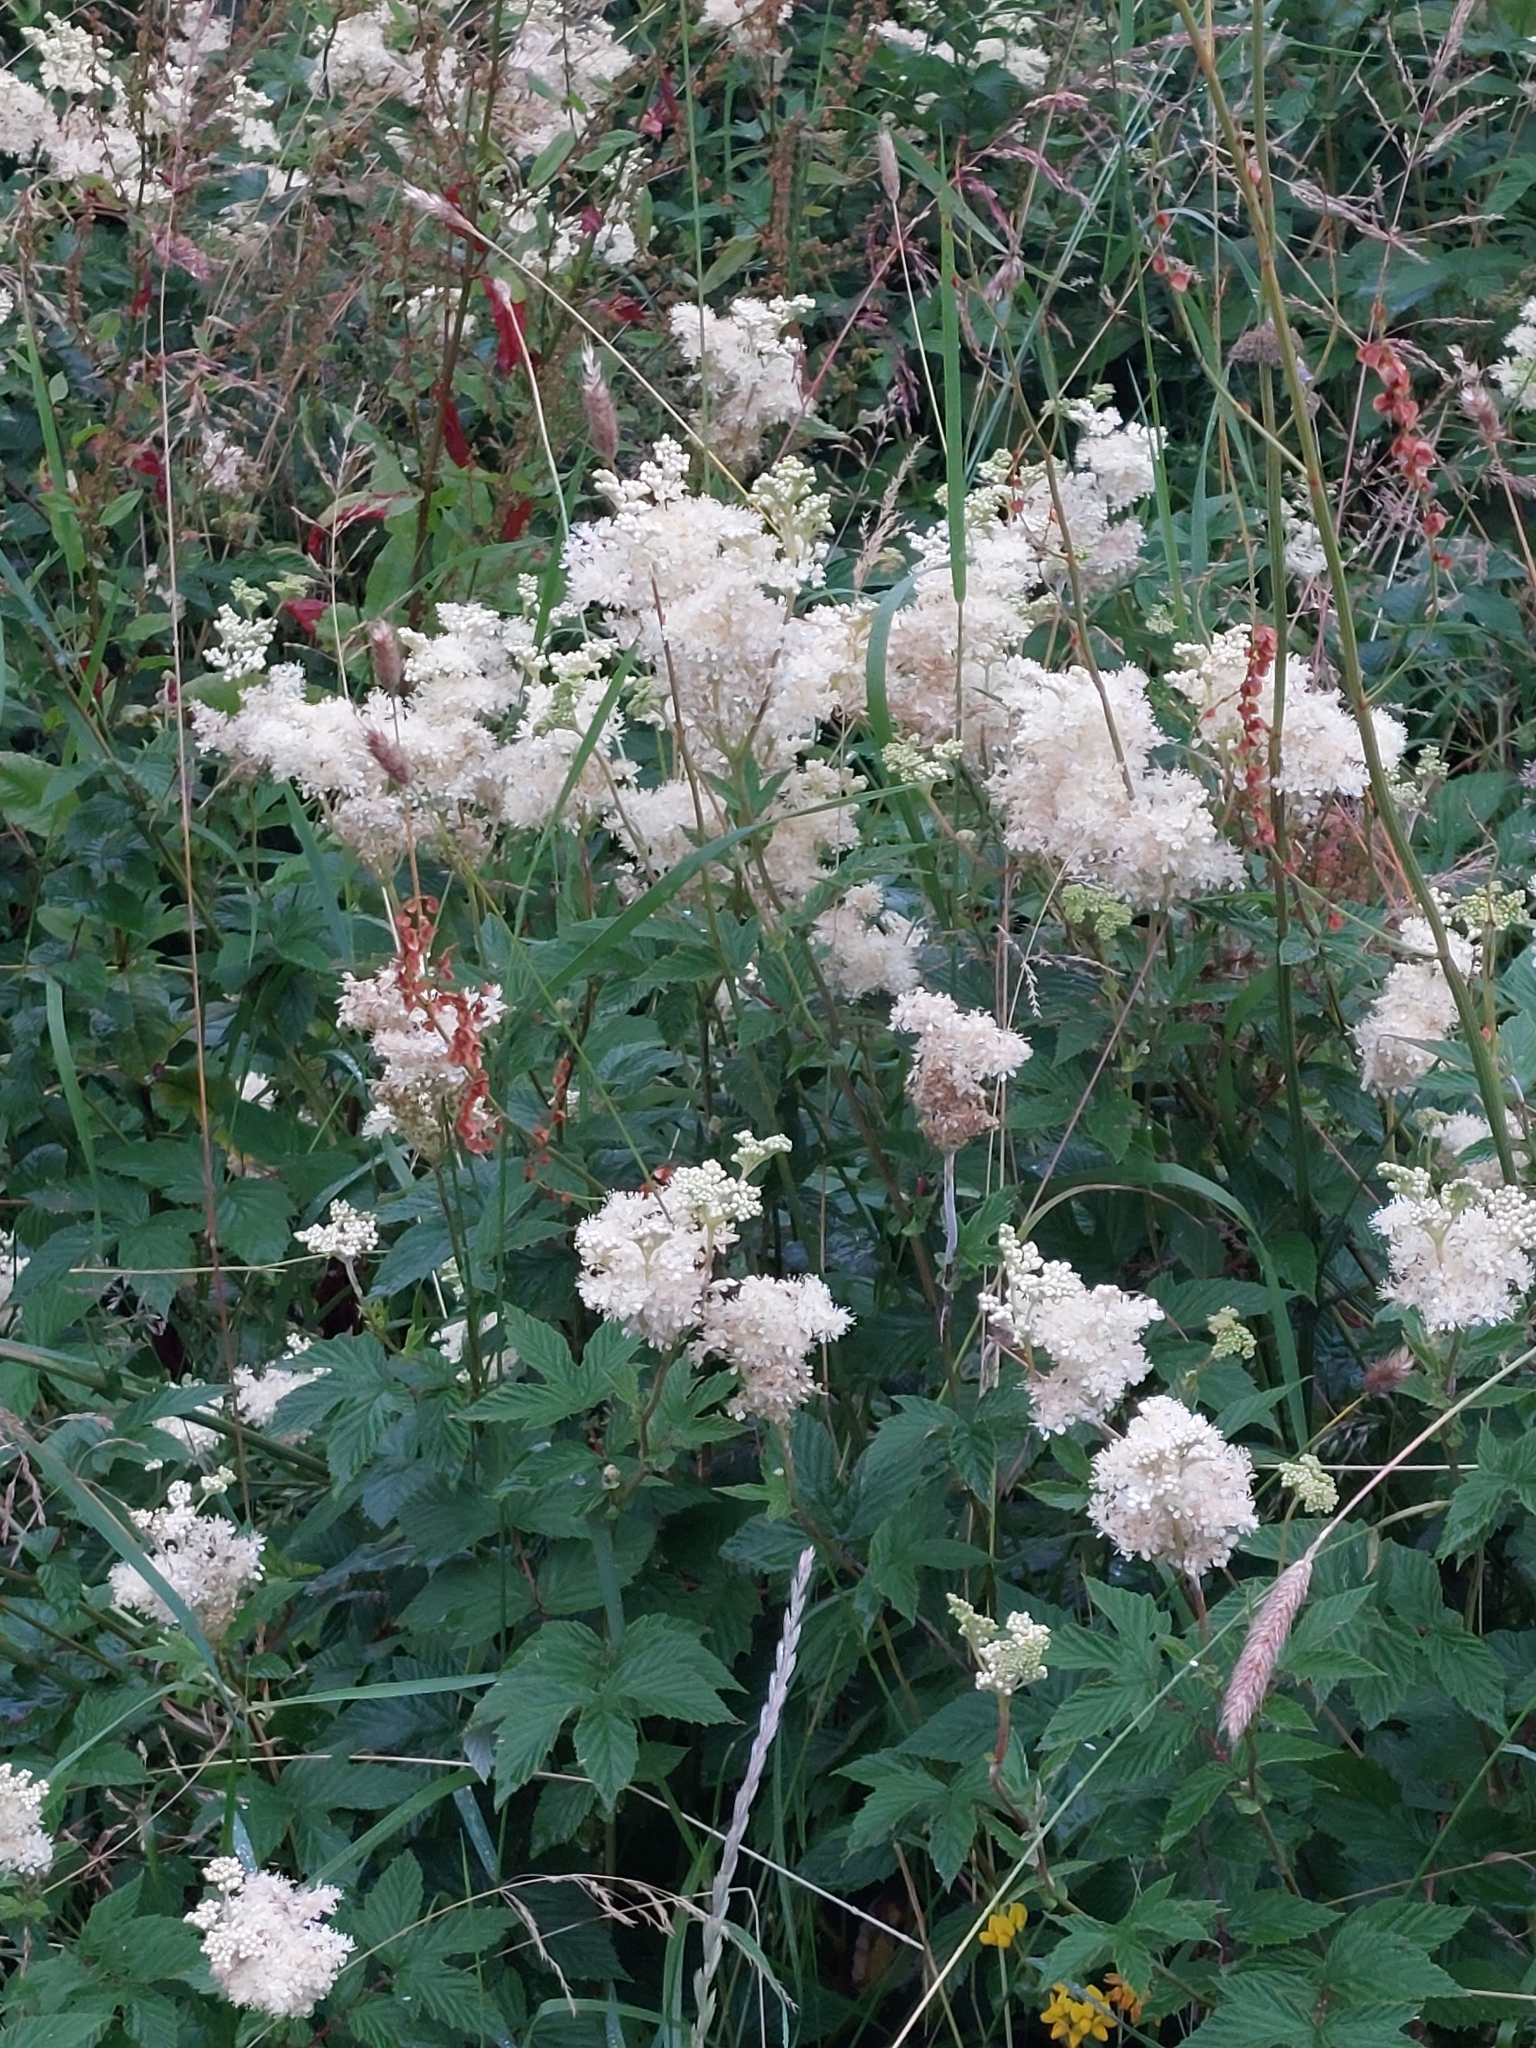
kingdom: Plantae
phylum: Tracheophyta
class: Magnoliopsida
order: Rosales
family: Rosaceae
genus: Filipendula
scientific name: Filipendula ulmaria
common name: Meadowsweet
